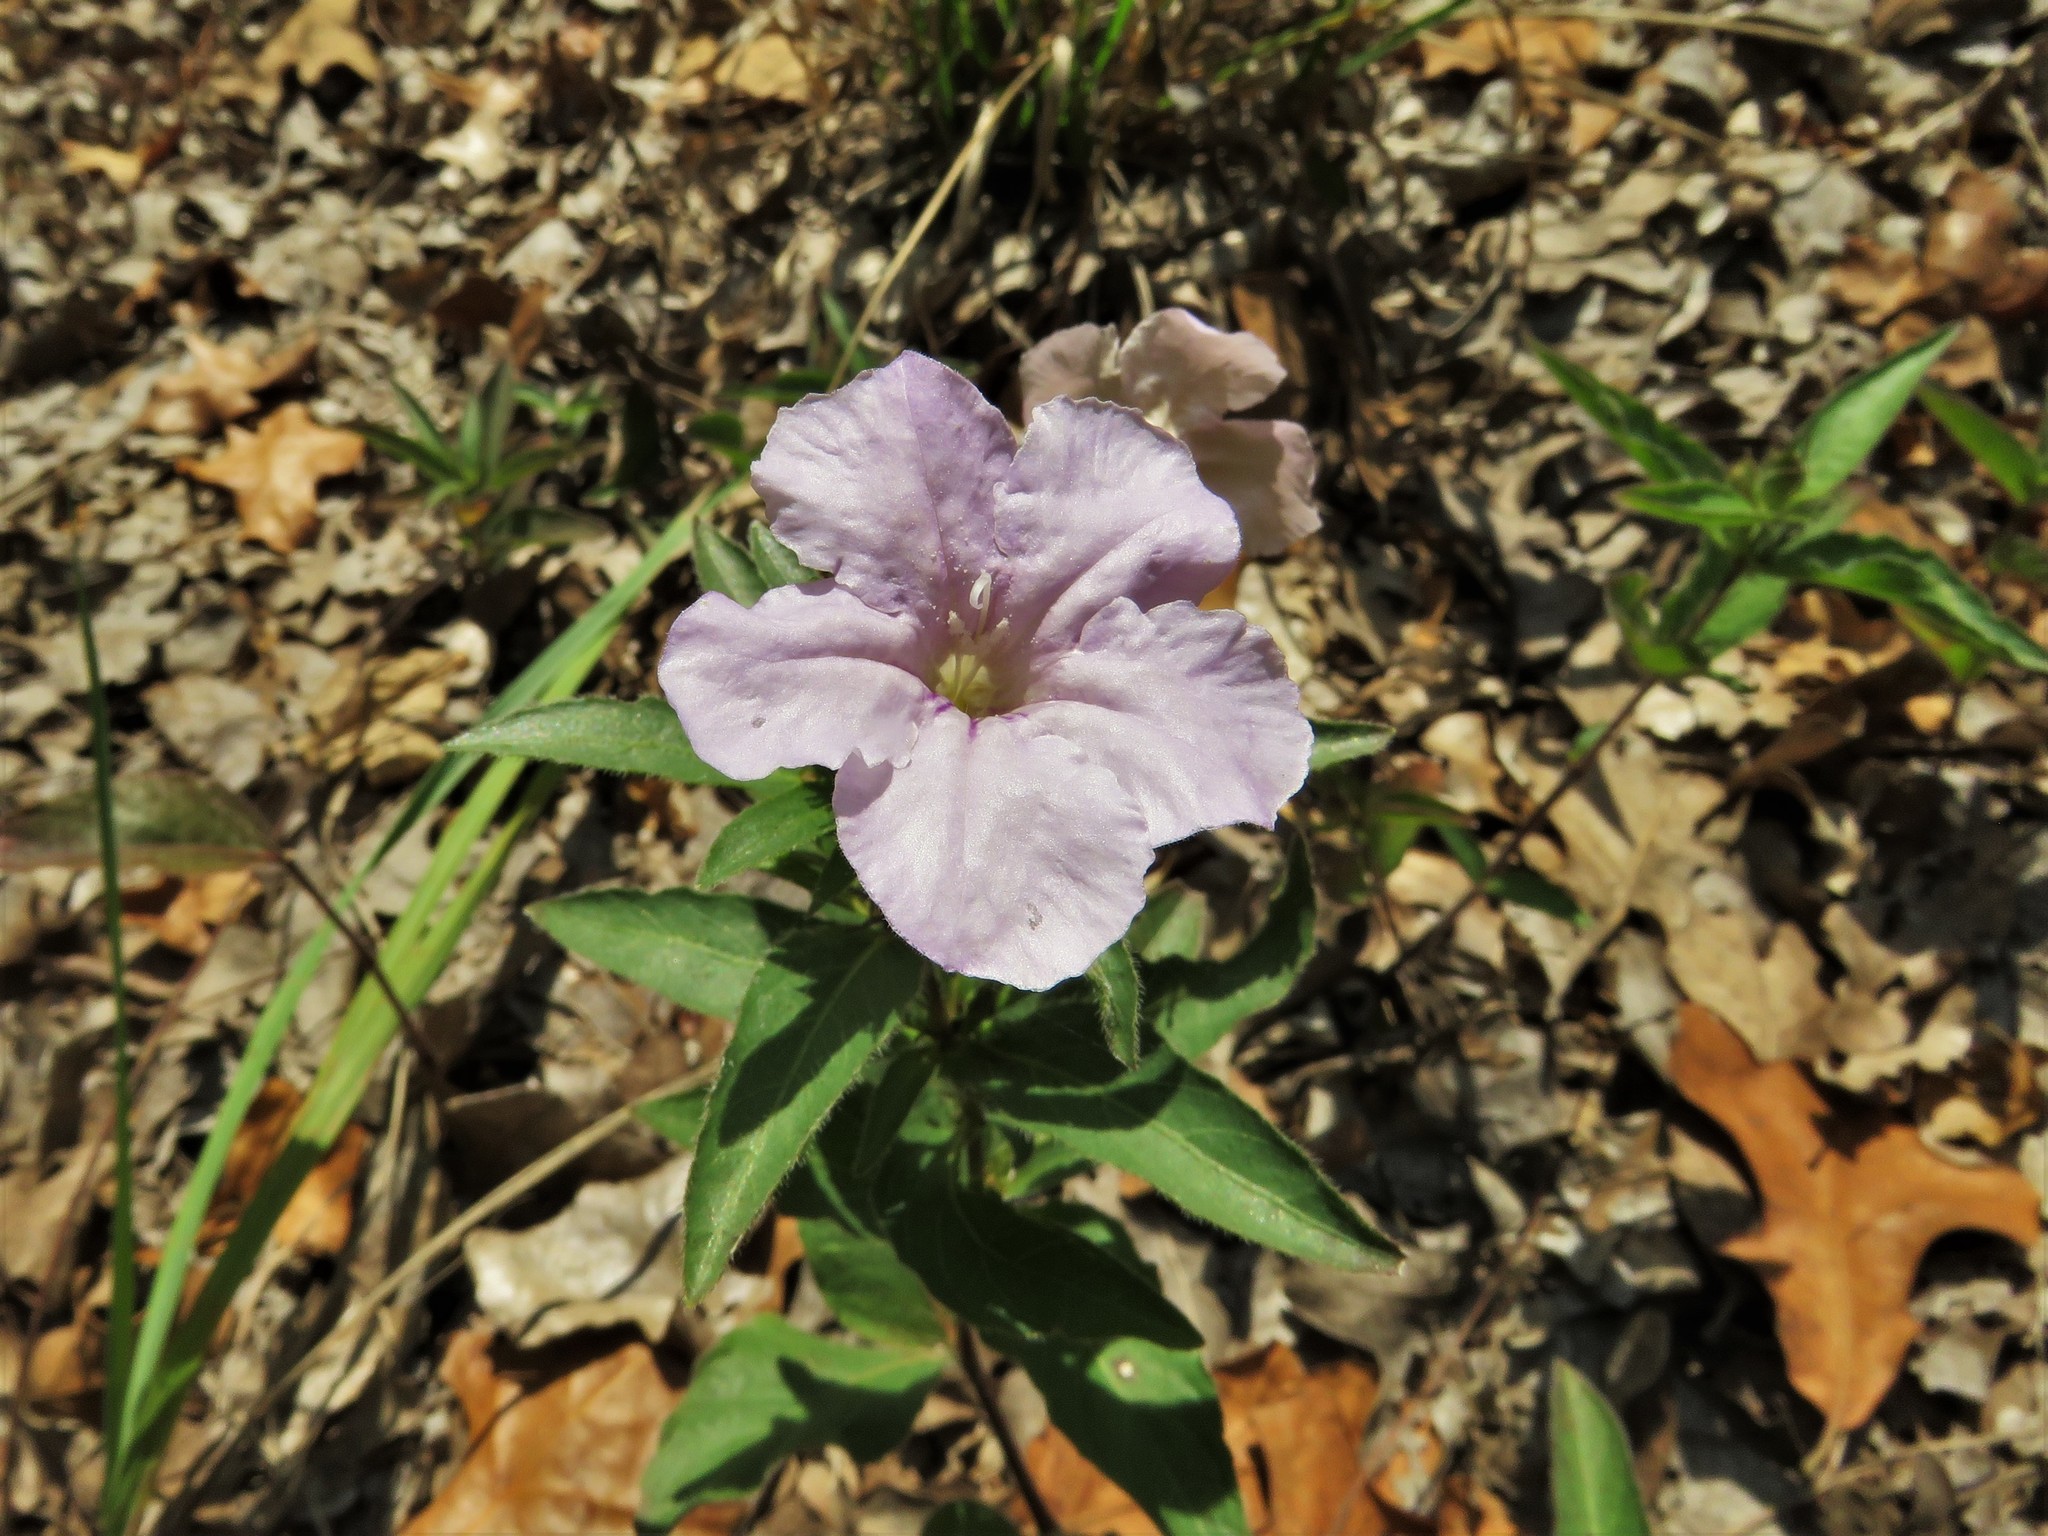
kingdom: Plantae
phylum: Tracheophyta
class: Magnoliopsida
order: Lamiales
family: Acanthaceae
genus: Ruellia
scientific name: Ruellia humilis
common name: Fringe-leaf ruellia
